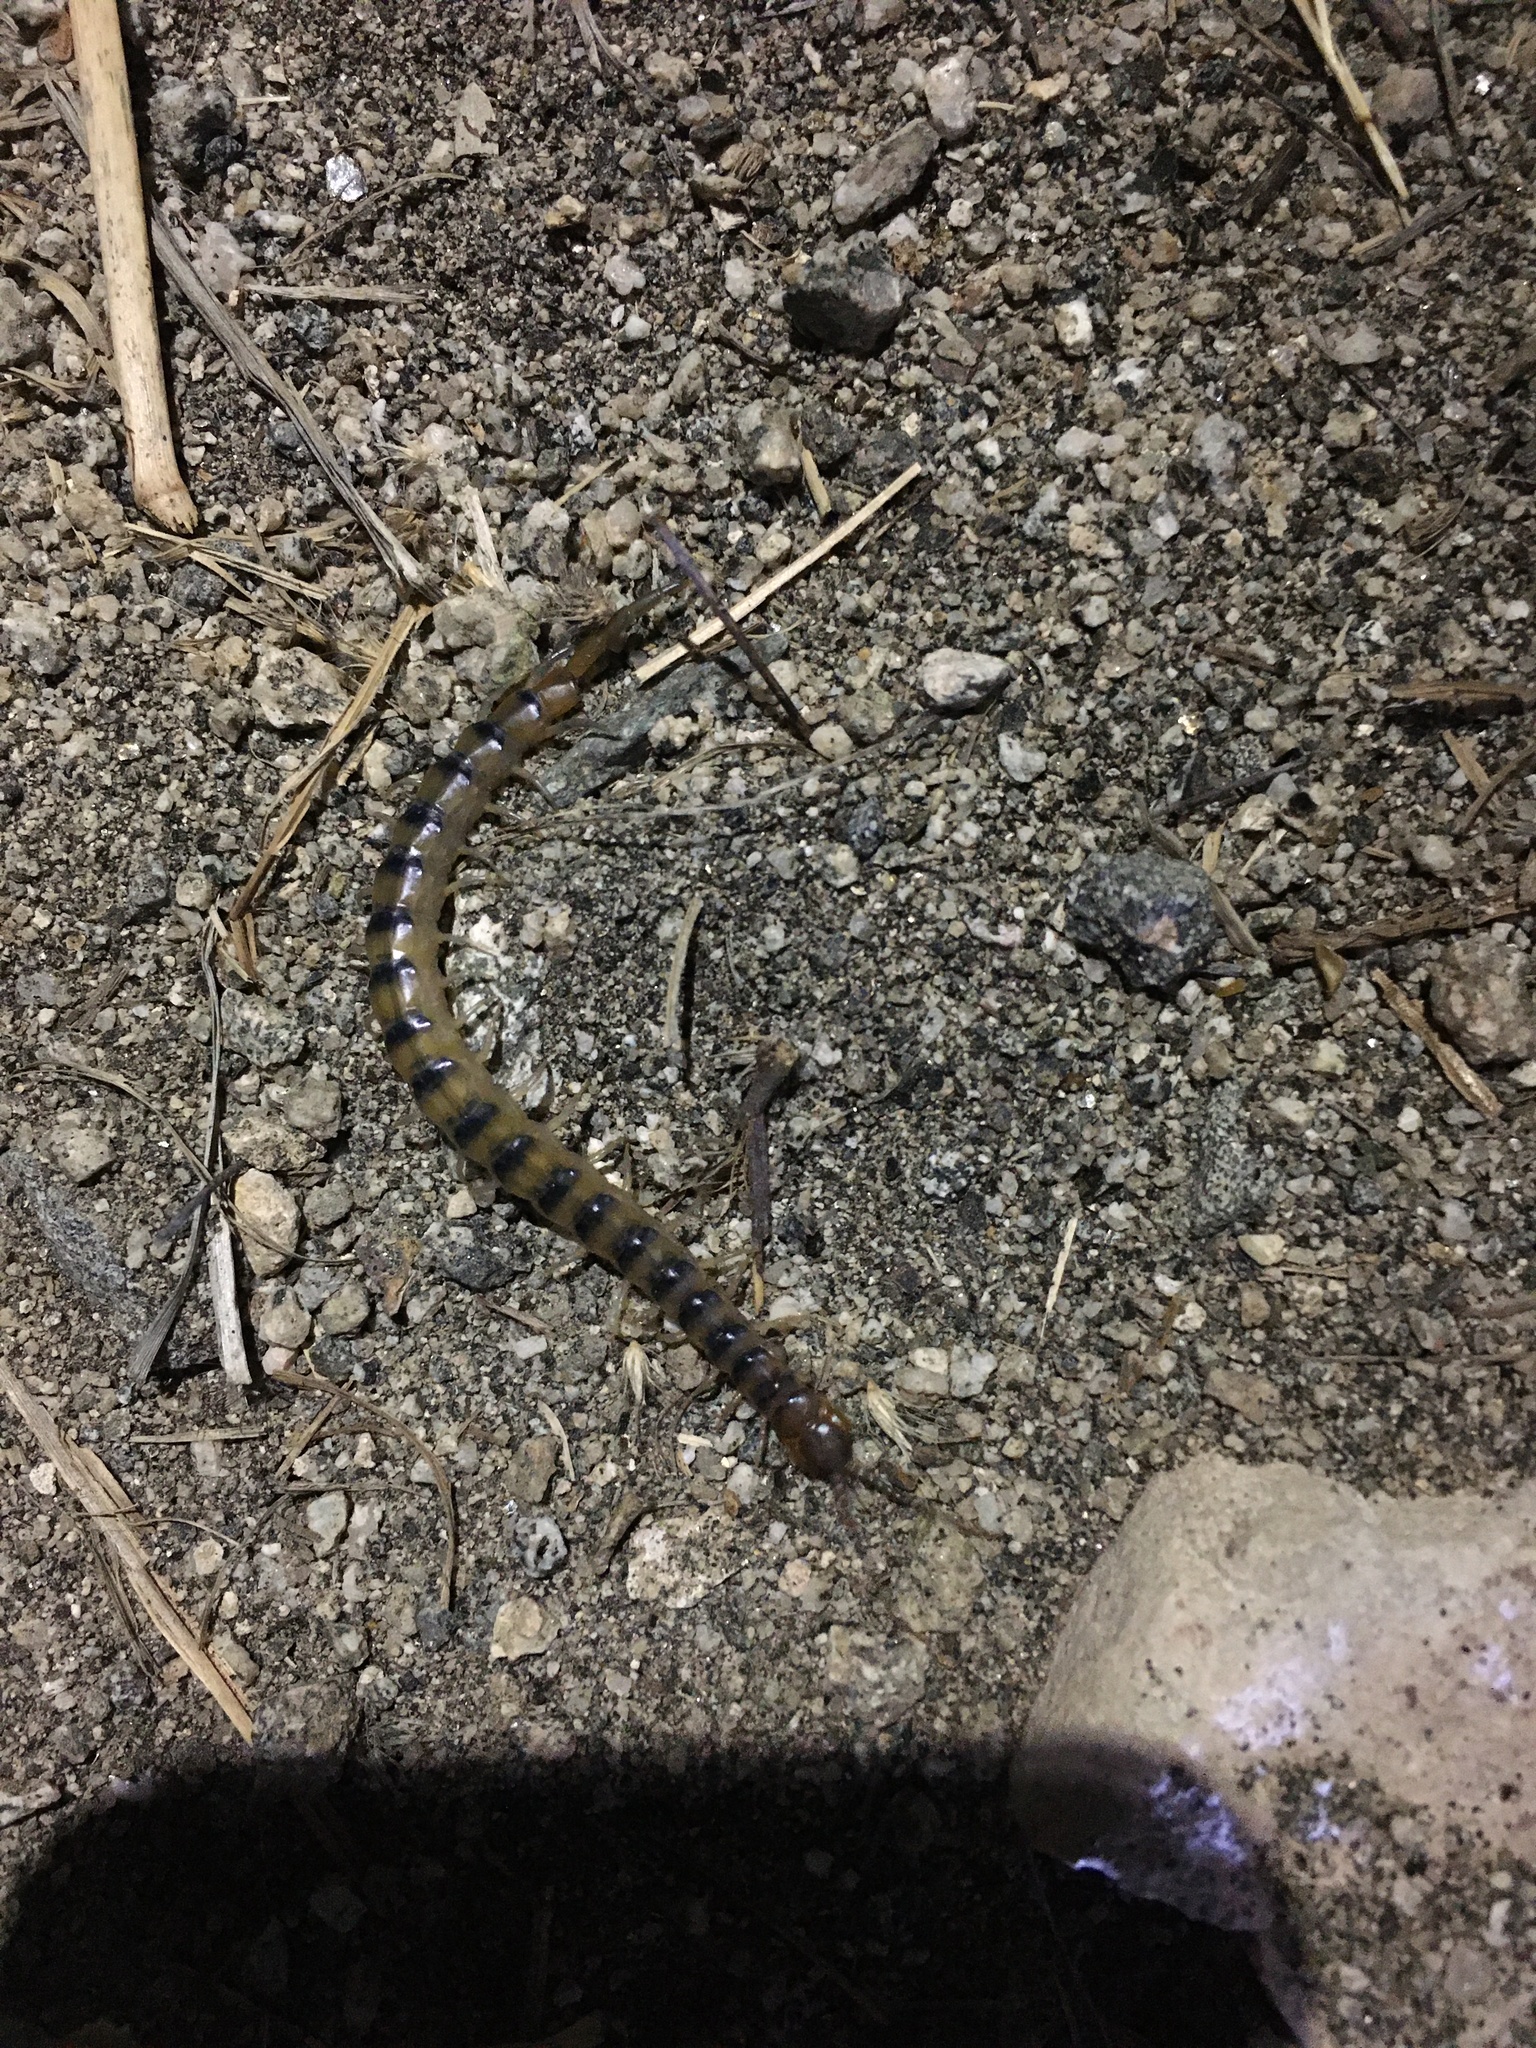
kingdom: Animalia
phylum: Arthropoda
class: Chilopoda
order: Scolopendromorpha
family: Scolopendridae
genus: Scolopendra
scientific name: Scolopendra polymorpha
